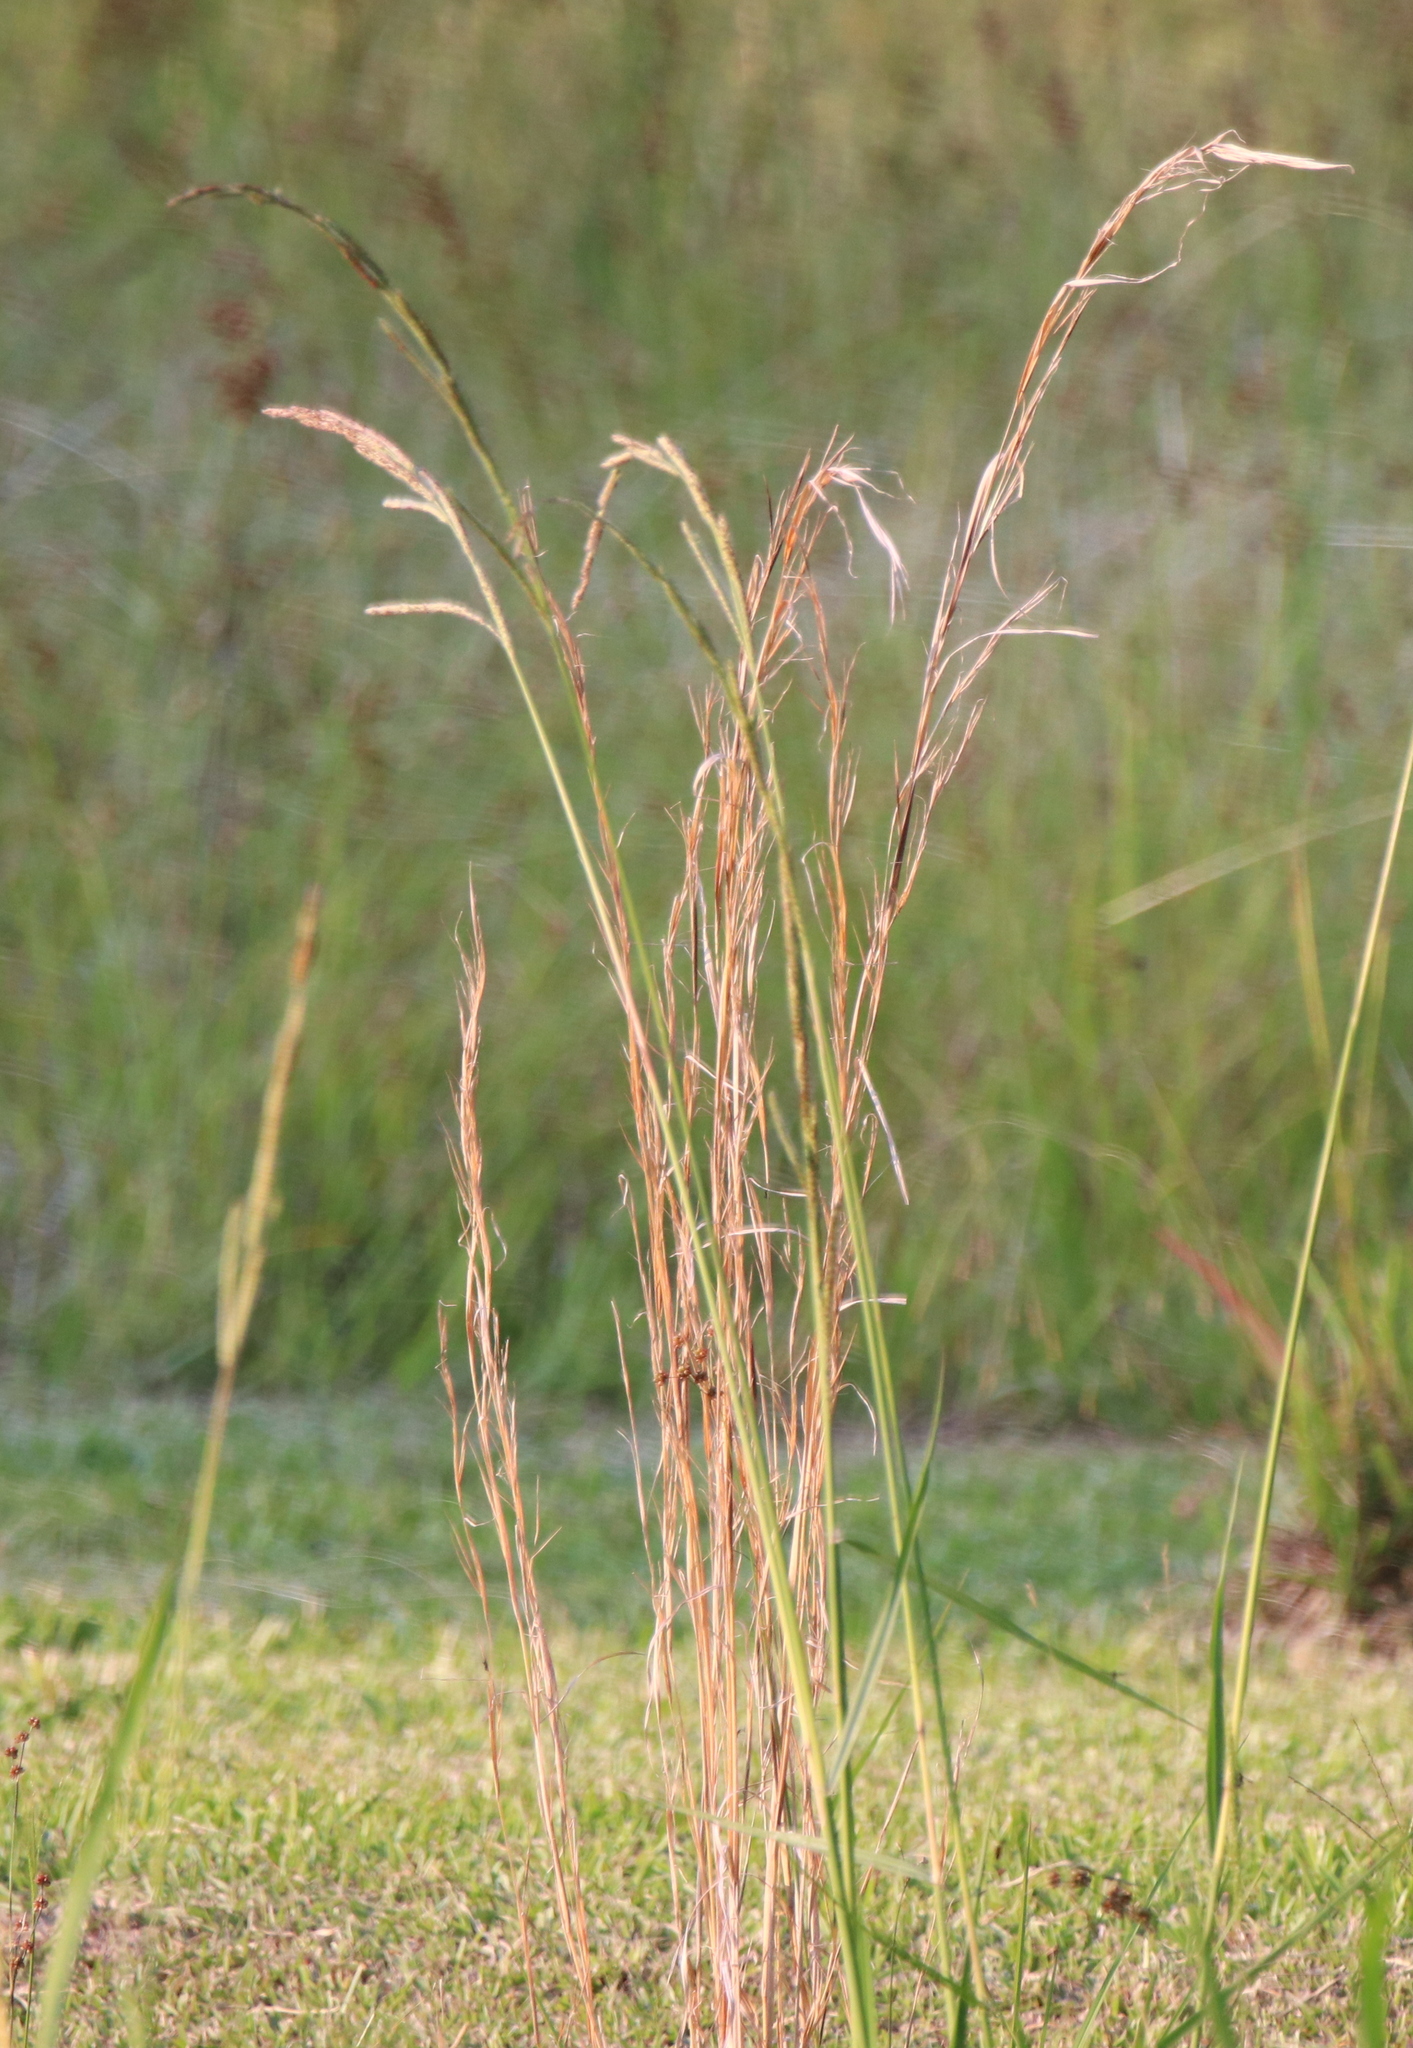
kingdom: Plantae
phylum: Tracheophyta
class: Liliopsida
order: Poales
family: Poaceae
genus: Andropogon
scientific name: Andropogon virginicus
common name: Broomsedge bluestem
